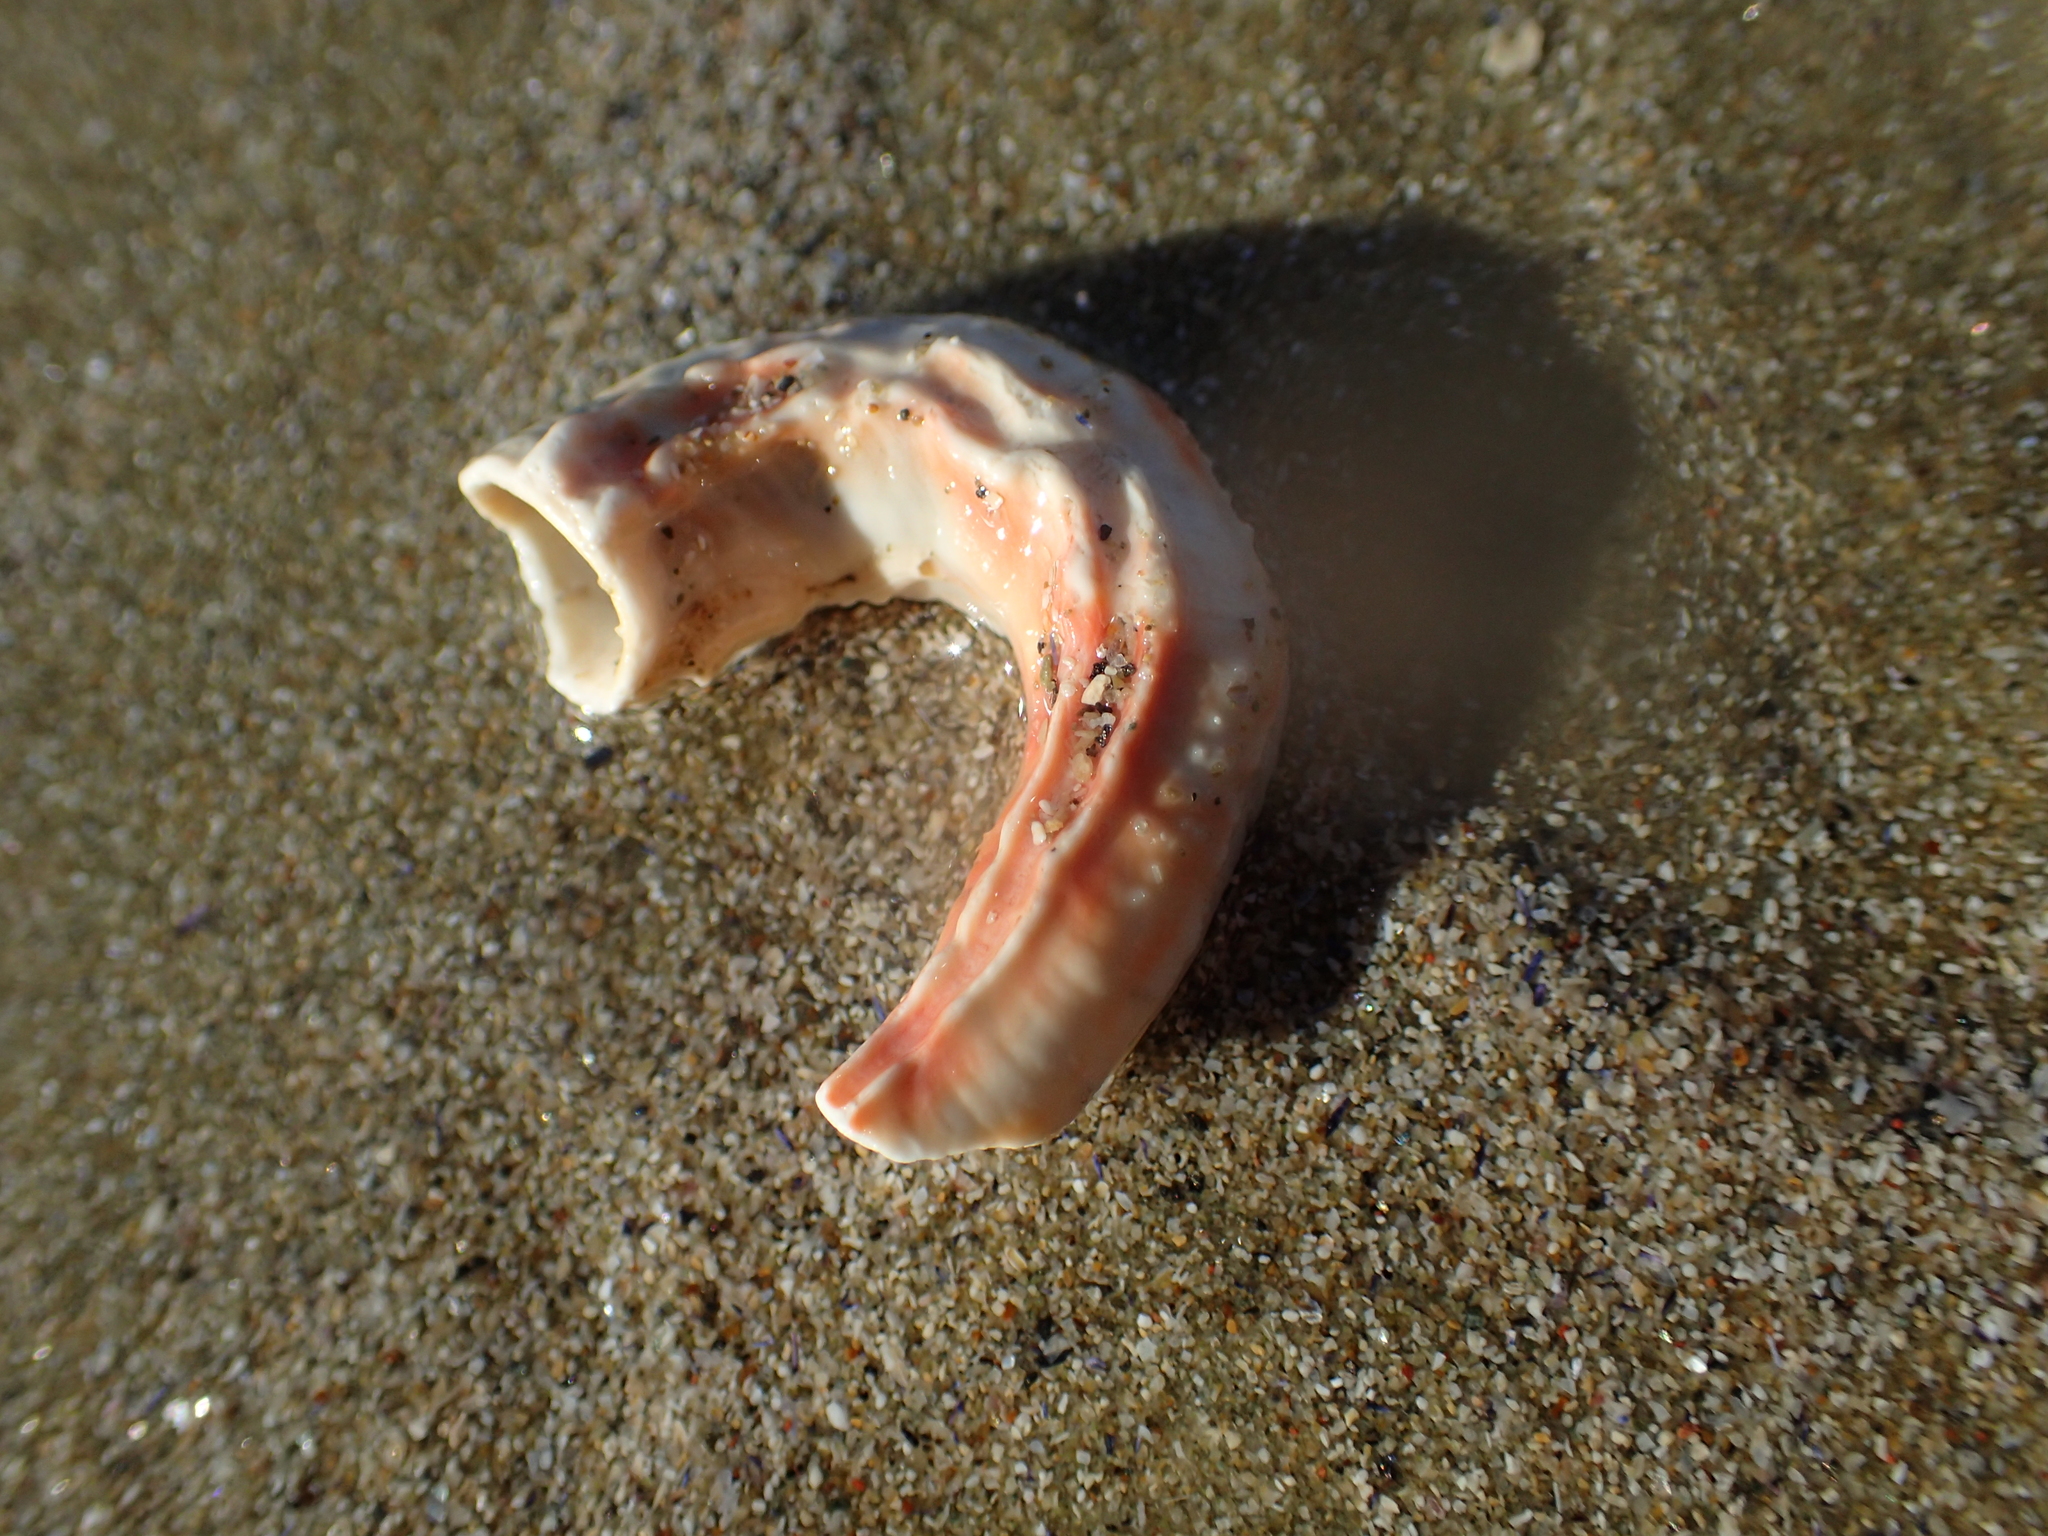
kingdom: Animalia
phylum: Annelida
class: Polychaeta
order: Sabellida
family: Serpulidae
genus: Galeolaria
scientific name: Galeolaria hystrix
